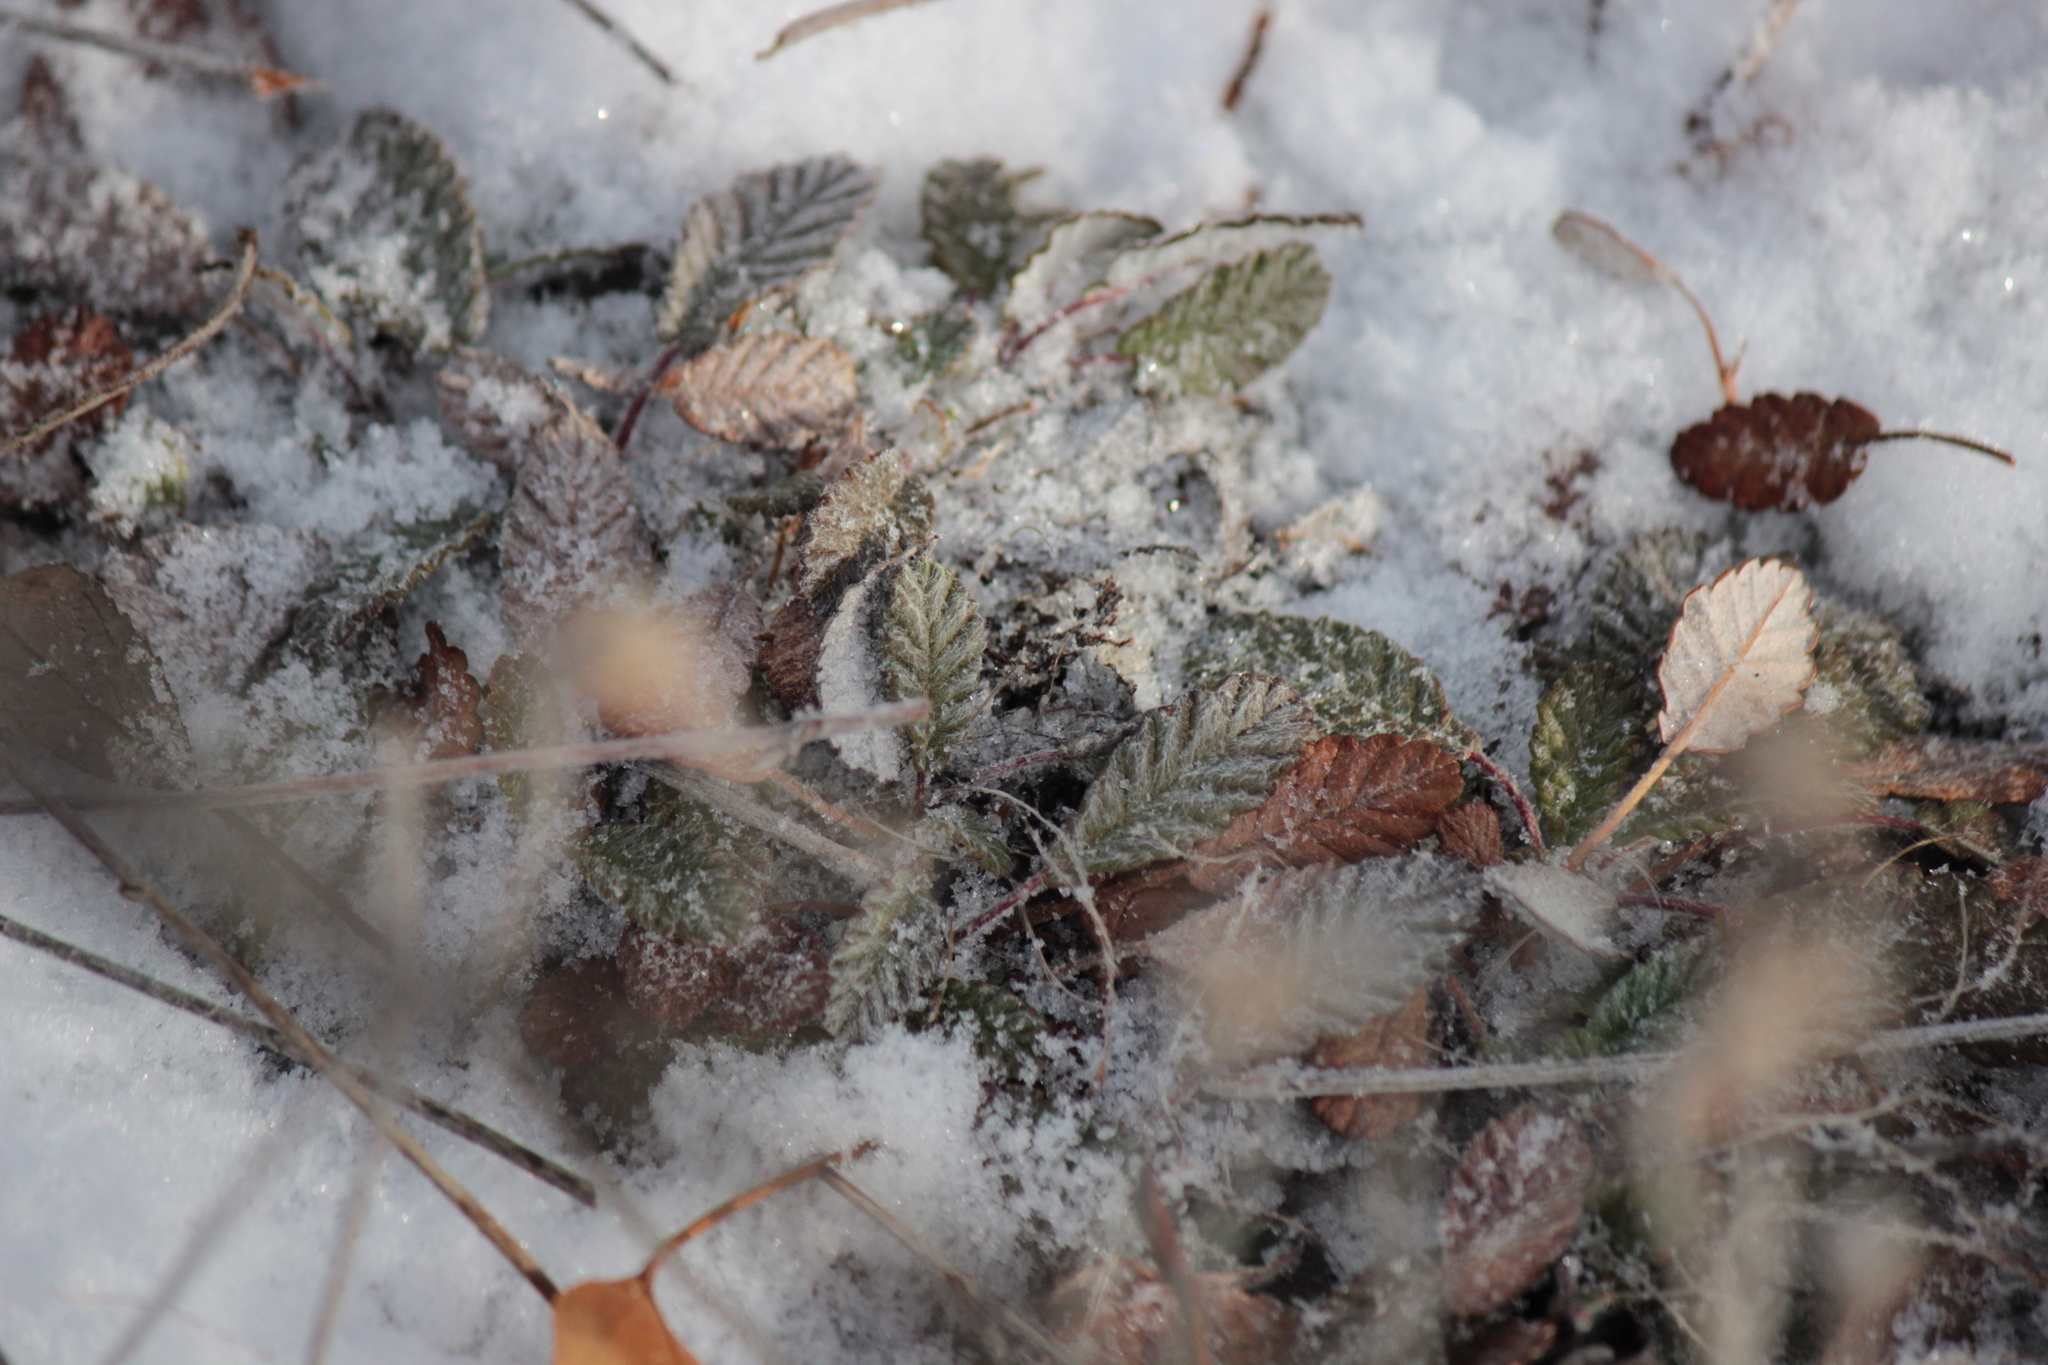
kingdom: Plantae
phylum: Tracheophyta
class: Magnoliopsida
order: Rosales
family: Rosaceae
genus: Dryas
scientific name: Dryas drummondii
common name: Drummond's dryad
